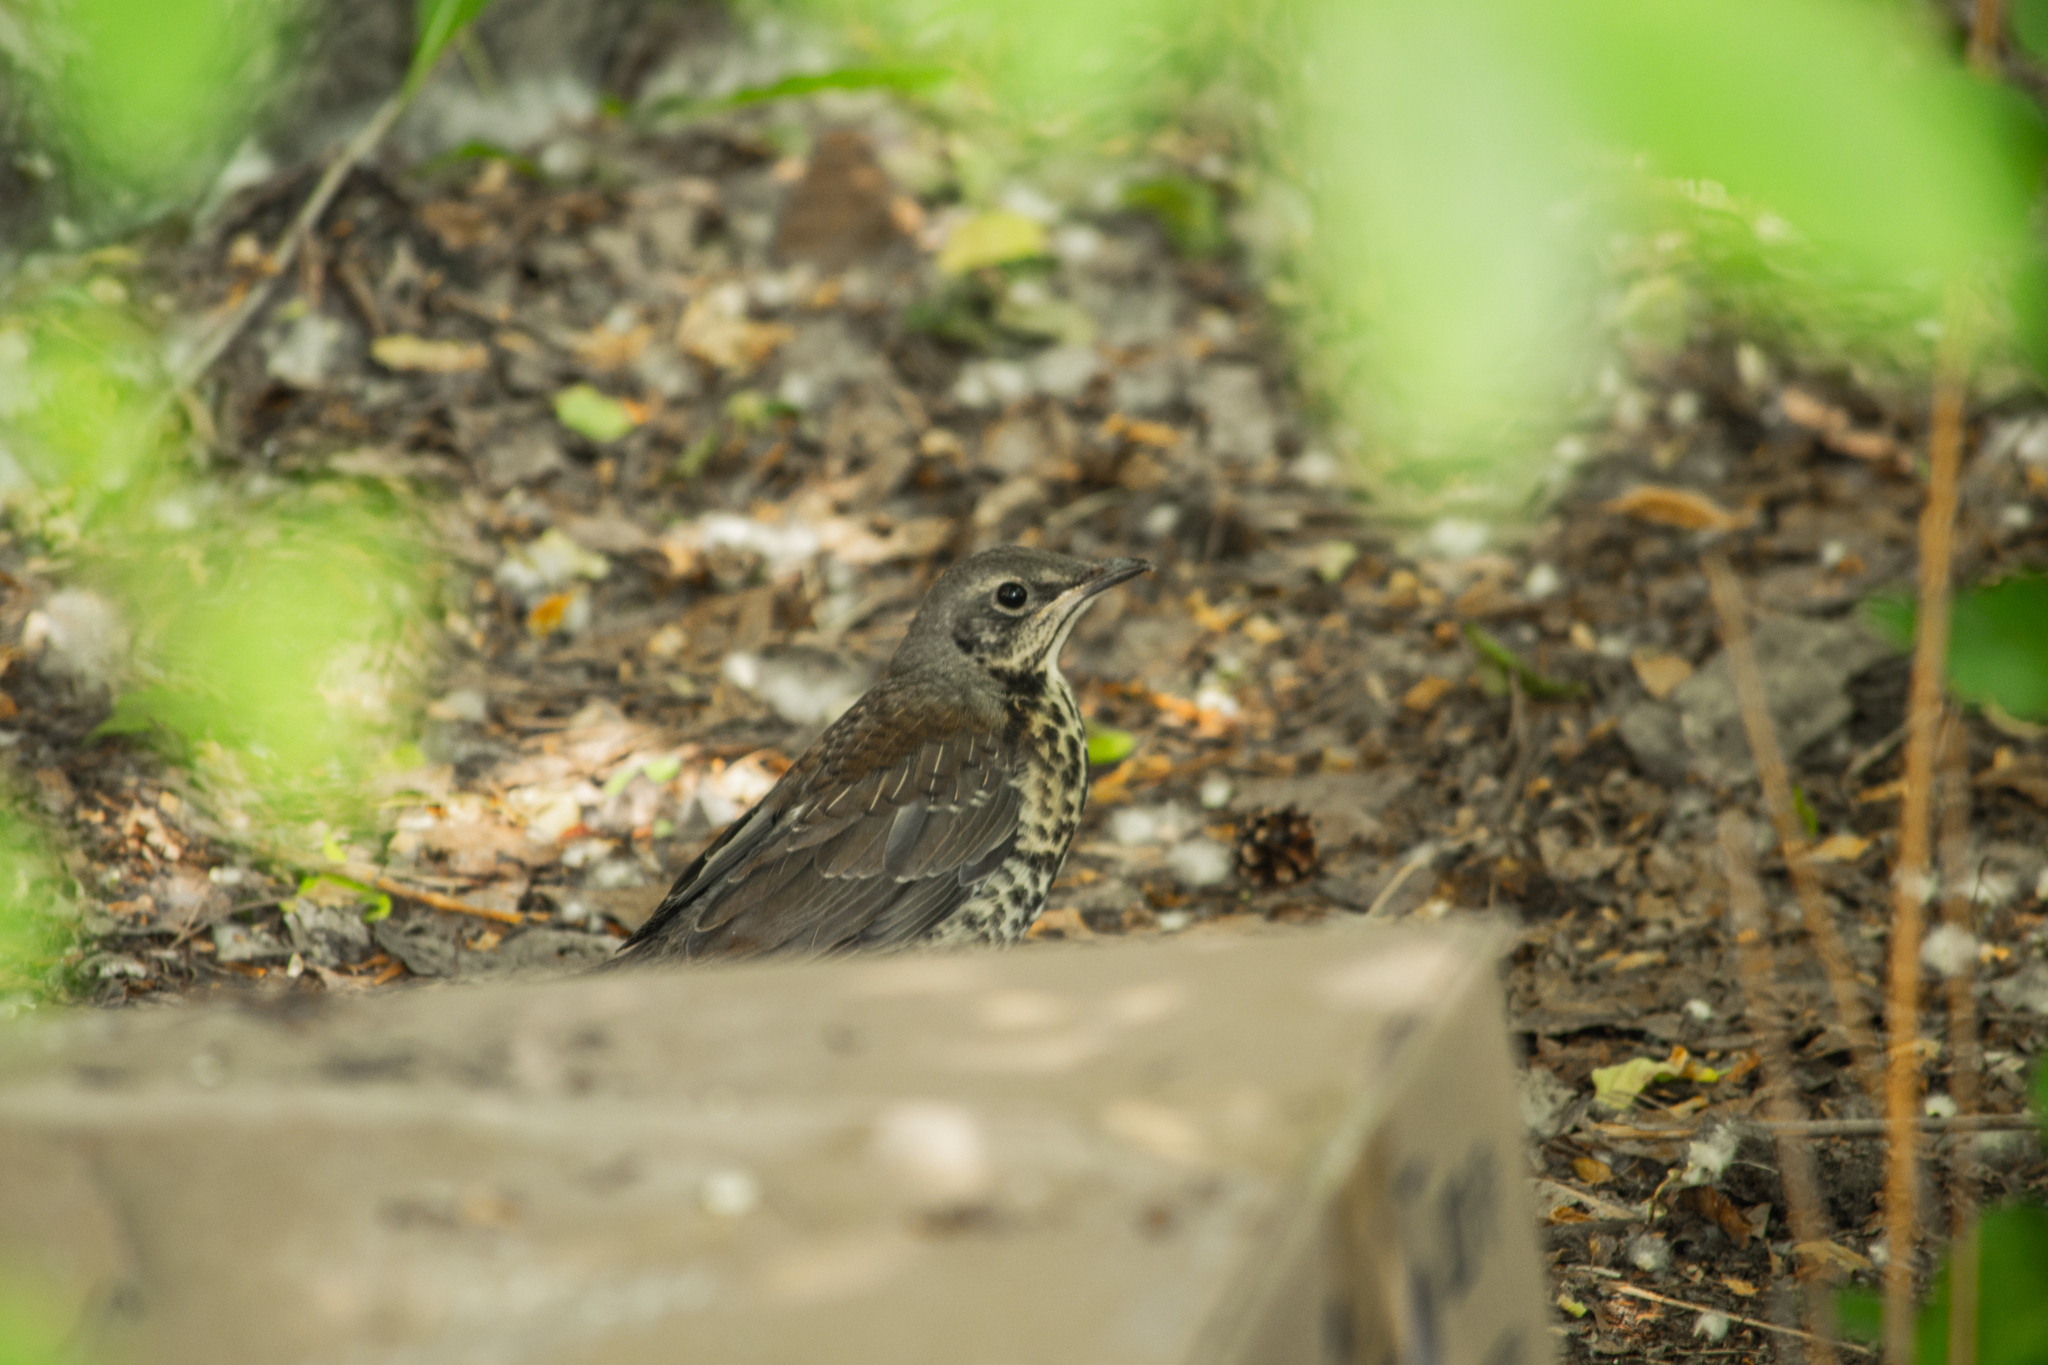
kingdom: Animalia
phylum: Chordata
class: Aves
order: Passeriformes
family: Turdidae
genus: Turdus
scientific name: Turdus pilaris
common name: Fieldfare
